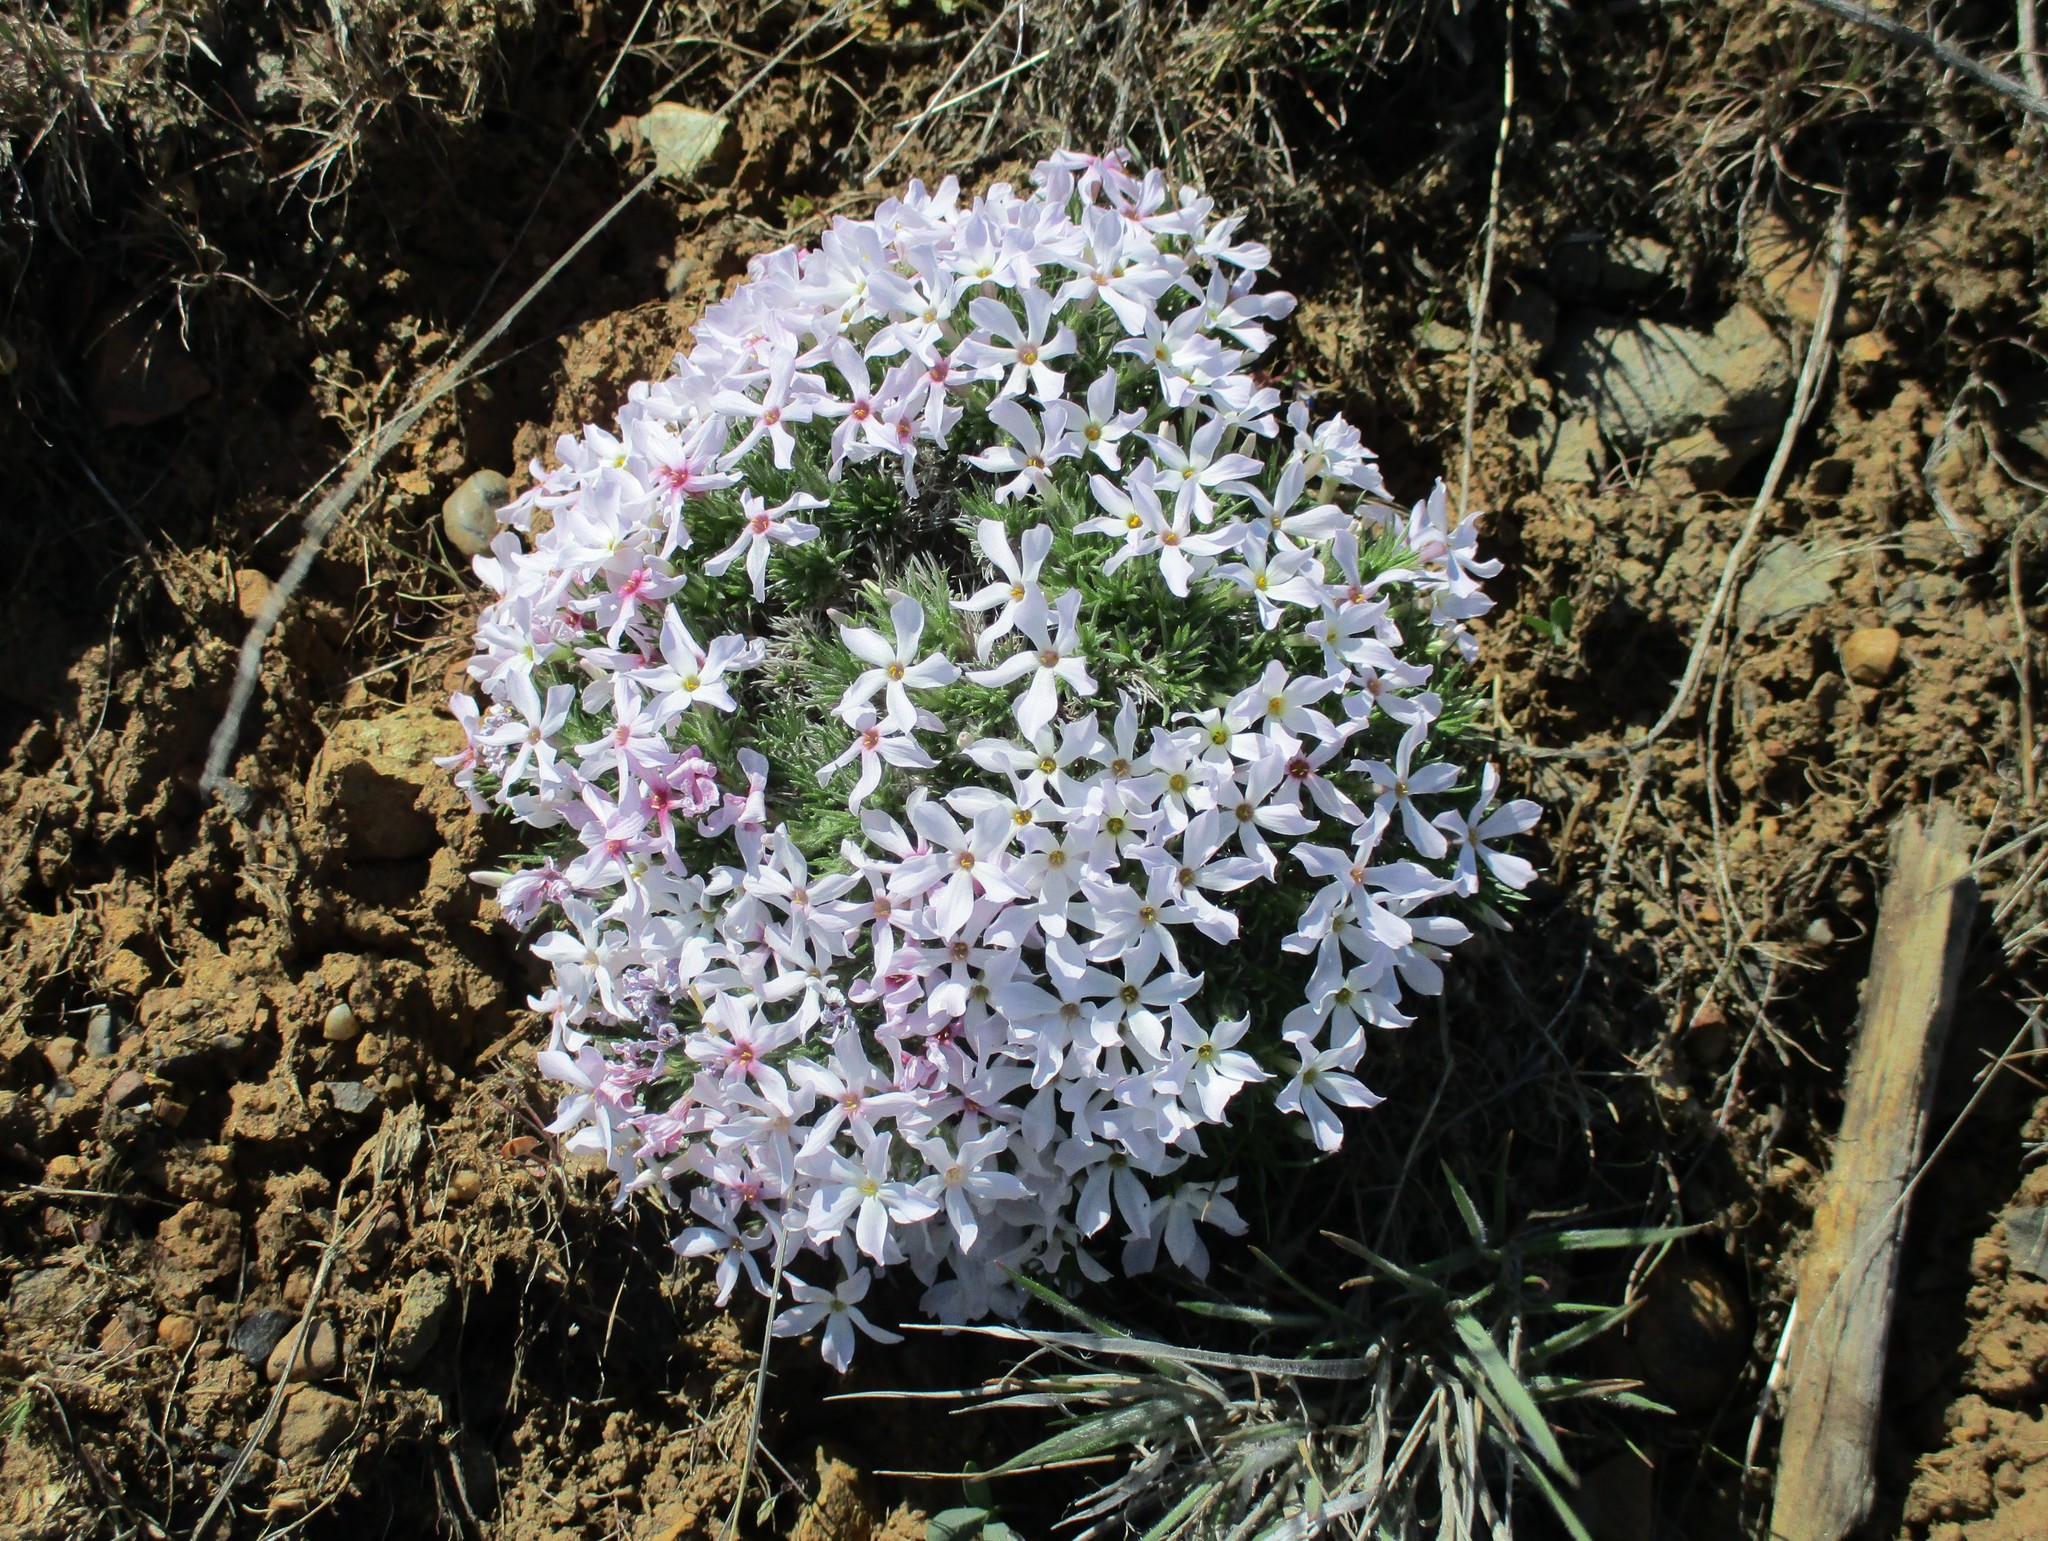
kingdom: Plantae
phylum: Tracheophyta
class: Magnoliopsida
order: Ericales
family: Polemoniaceae
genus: Phlox
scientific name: Phlox hoodii
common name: Moss phlox
